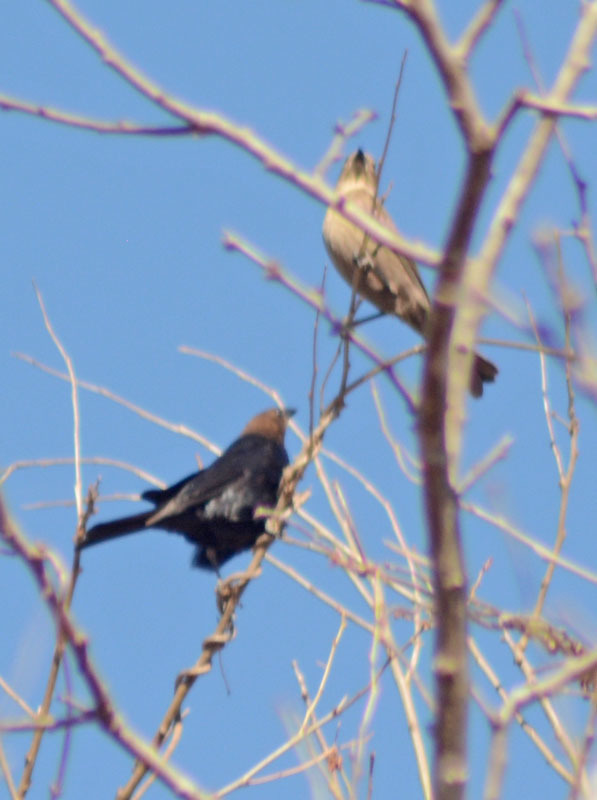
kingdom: Animalia
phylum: Chordata
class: Aves
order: Passeriformes
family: Icteridae
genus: Molothrus
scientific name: Molothrus ater
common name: Brown-headed cowbird
